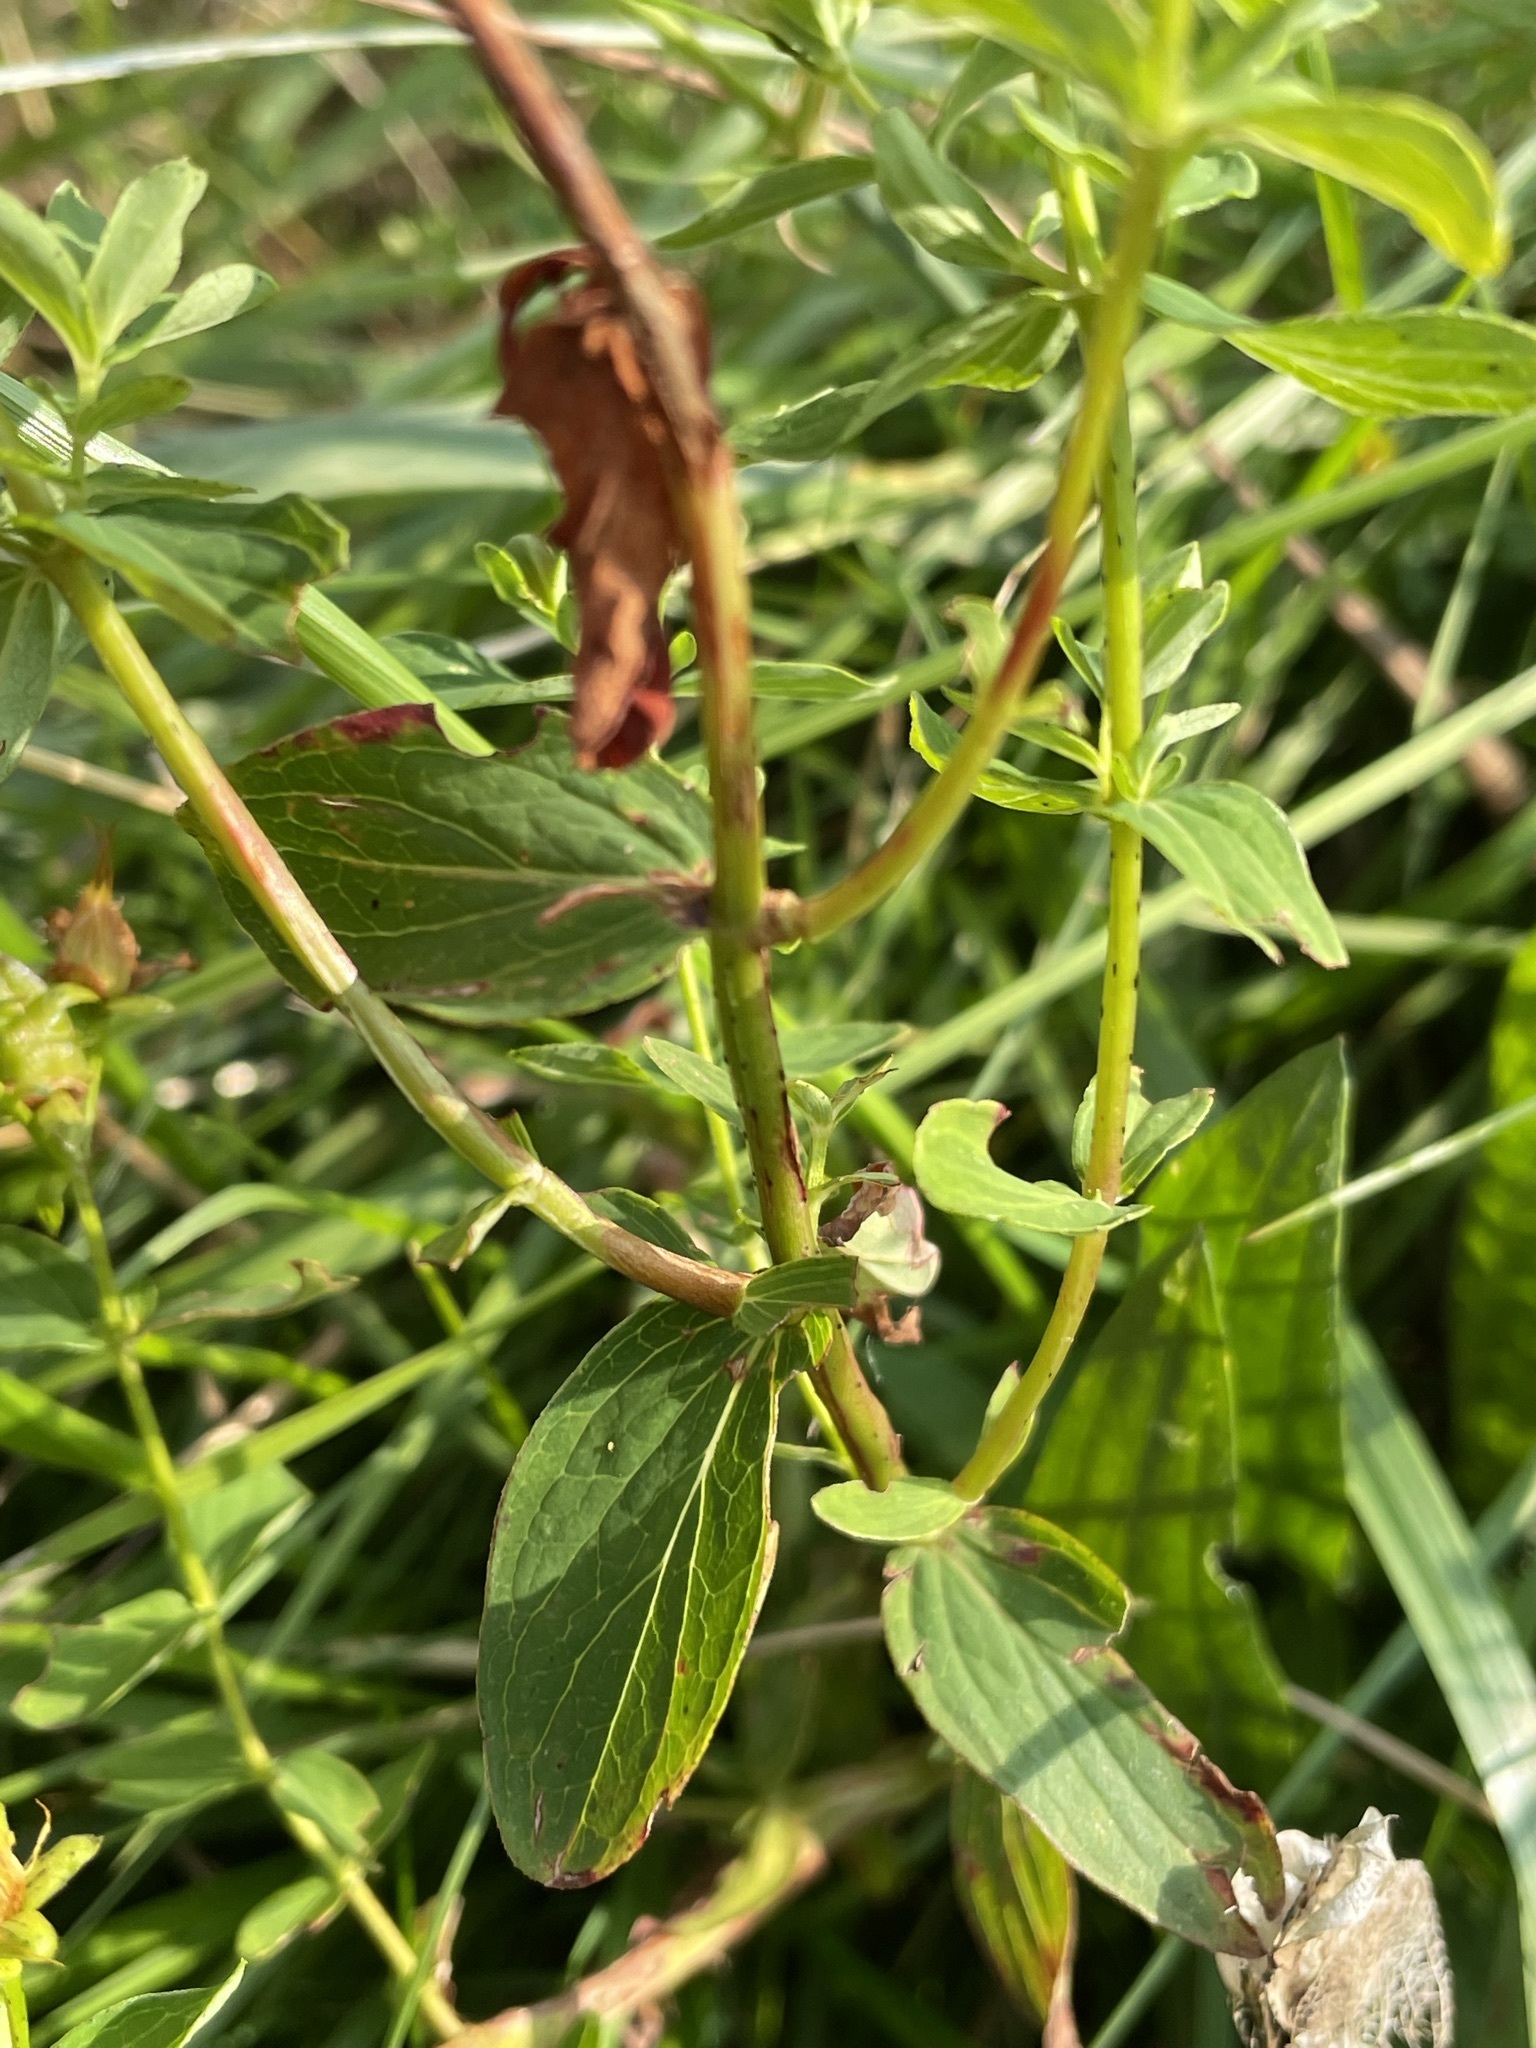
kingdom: Plantae
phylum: Tracheophyta
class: Magnoliopsida
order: Malpighiales
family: Hypericaceae
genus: Hypericum
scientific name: Hypericum maculatum
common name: Imperforate st. john's-wort
